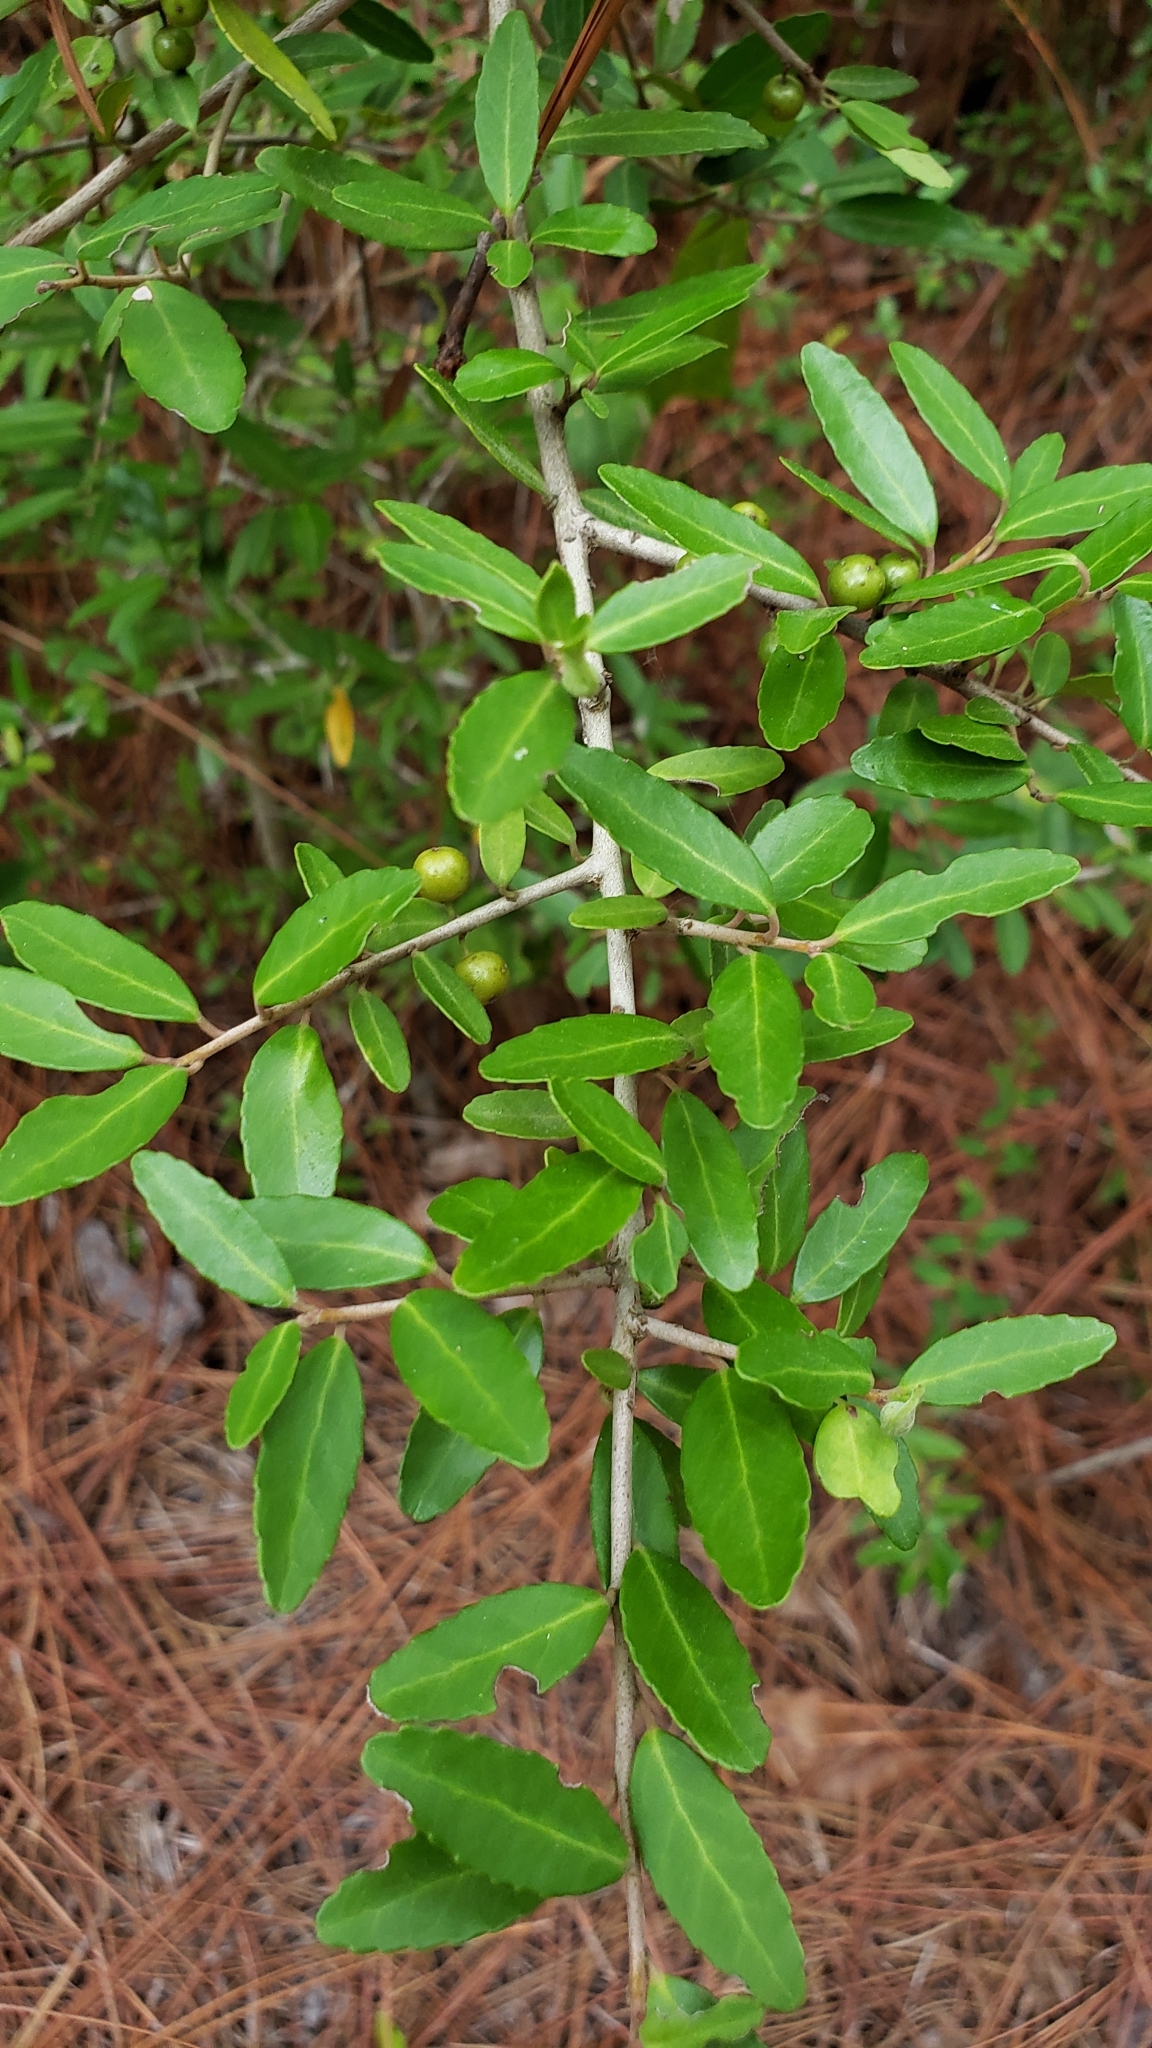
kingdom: Plantae
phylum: Tracheophyta
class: Magnoliopsida
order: Aquifoliales
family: Aquifoliaceae
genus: Ilex
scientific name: Ilex vomitoria
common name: Yaupon holly
